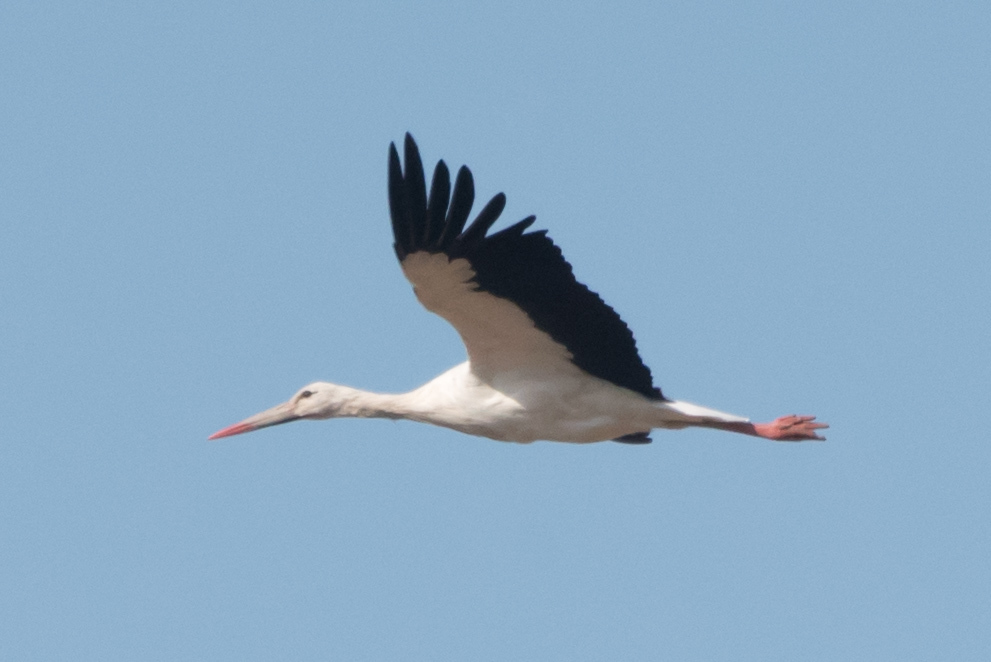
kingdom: Animalia
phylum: Chordata
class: Aves
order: Ciconiiformes
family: Ciconiidae
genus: Ciconia
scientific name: Ciconia ciconia
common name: White stork
